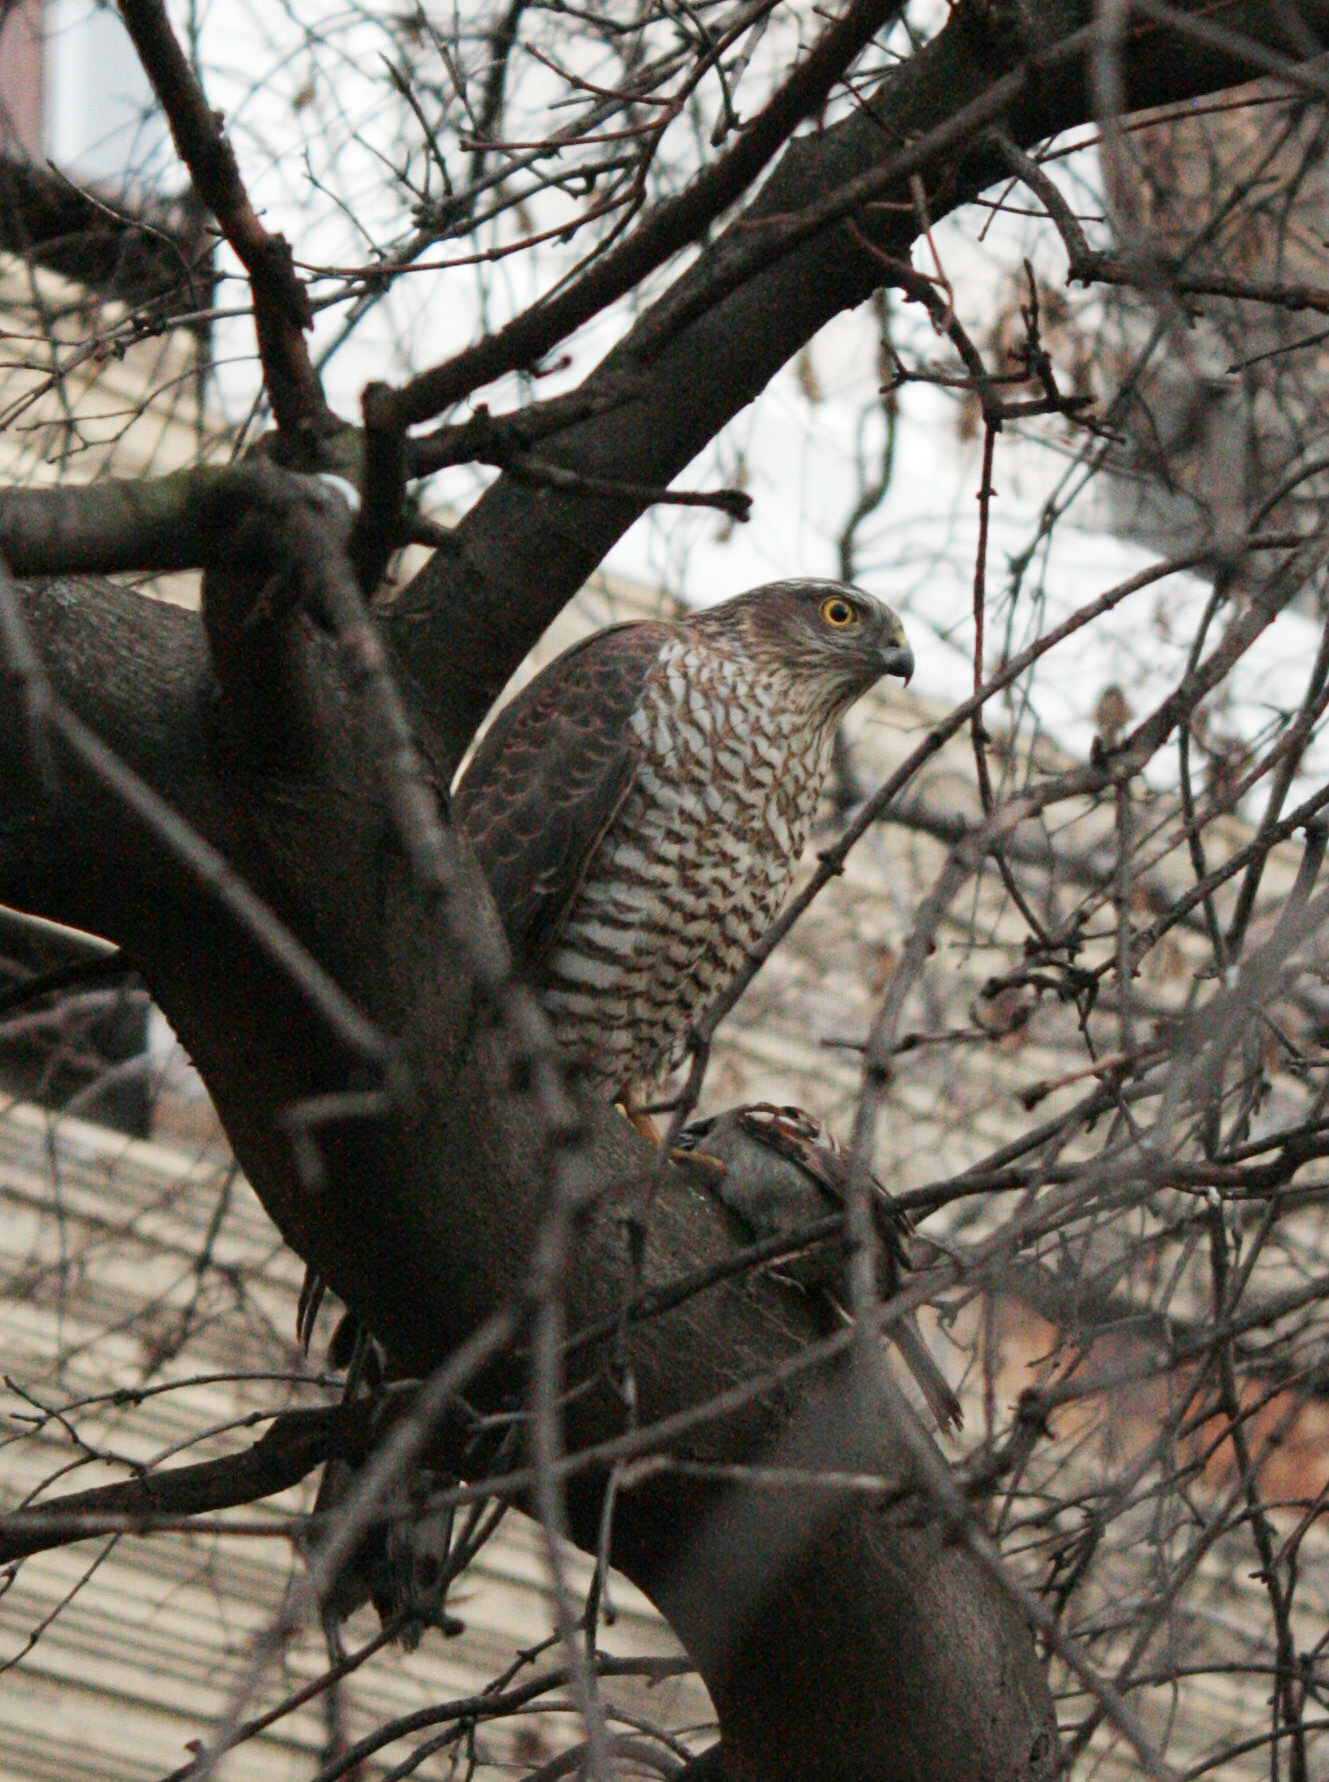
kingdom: Animalia
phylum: Chordata
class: Aves
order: Accipitriformes
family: Accipitridae
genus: Accipiter
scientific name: Accipiter nisus
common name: Eurasian sparrowhawk
